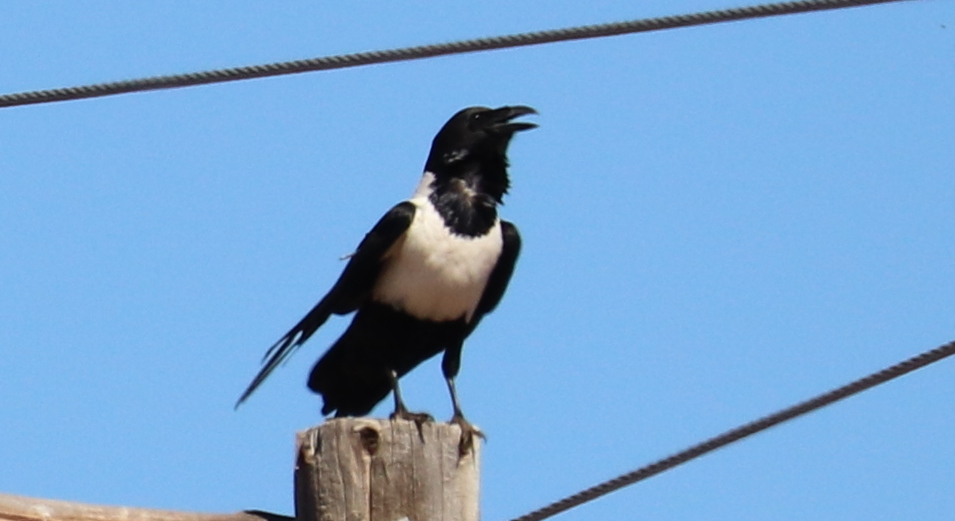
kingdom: Animalia
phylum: Chordata
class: Aves
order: Passeriformes
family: Corvidae
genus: Corvus
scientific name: Corvus albus
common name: Pied crow
